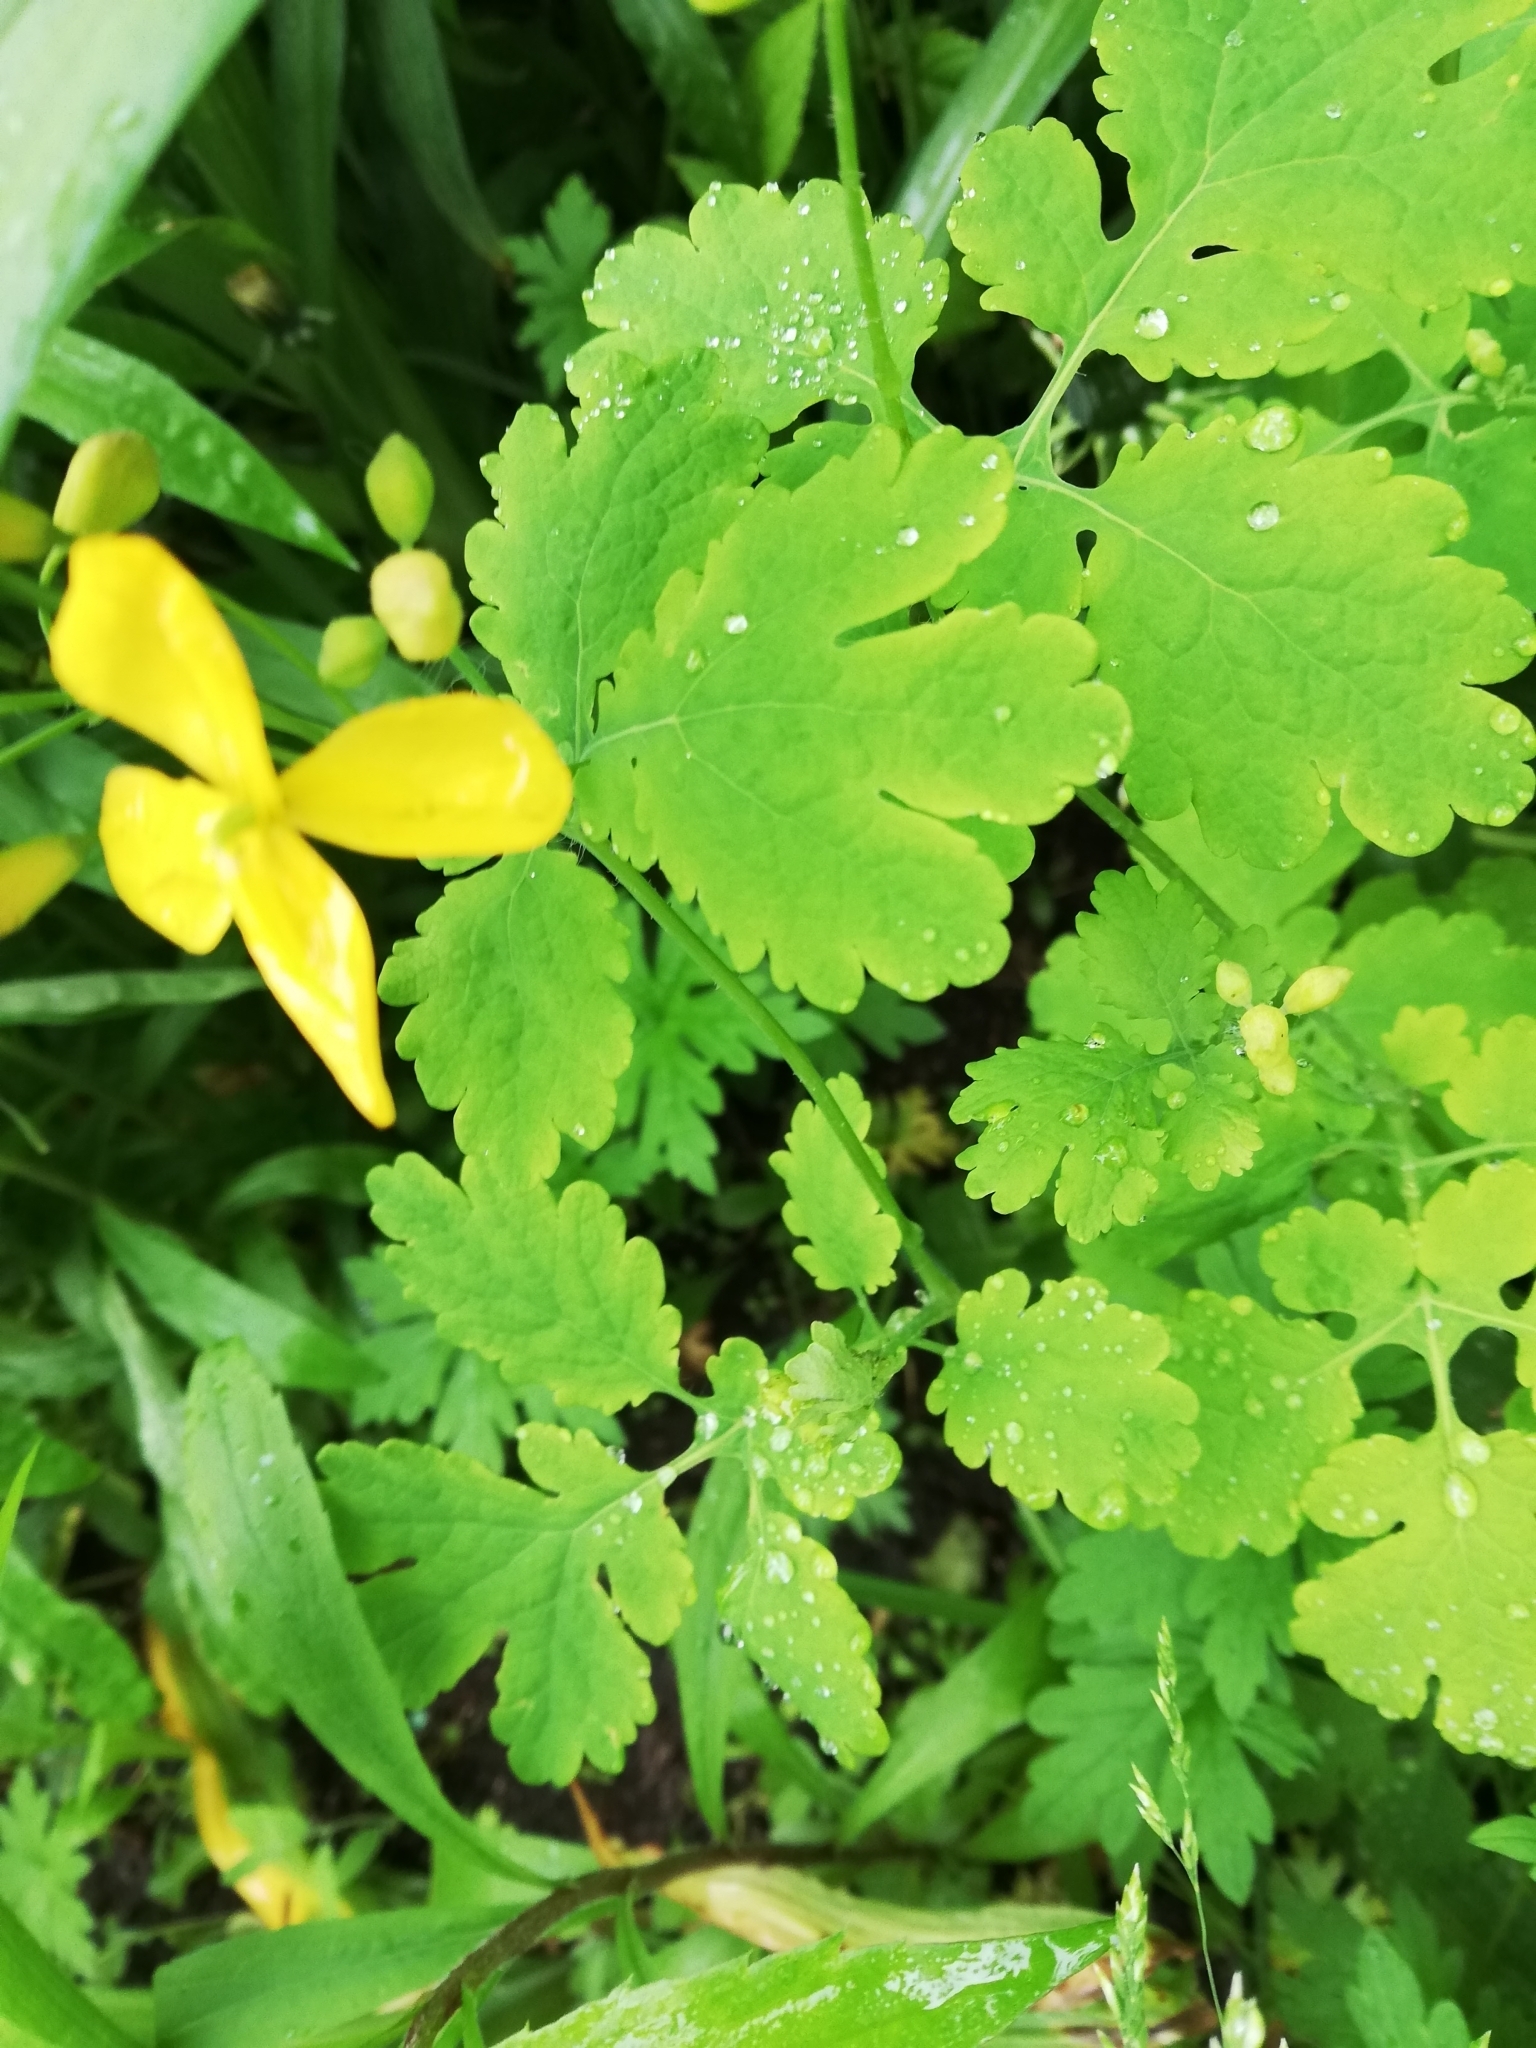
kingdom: Plantae
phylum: Tracheophyta
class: Magnoliopsida
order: Ranunculales
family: Papaveraceae
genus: Chelidonium
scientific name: Chelidonium majus
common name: Greater celandine
